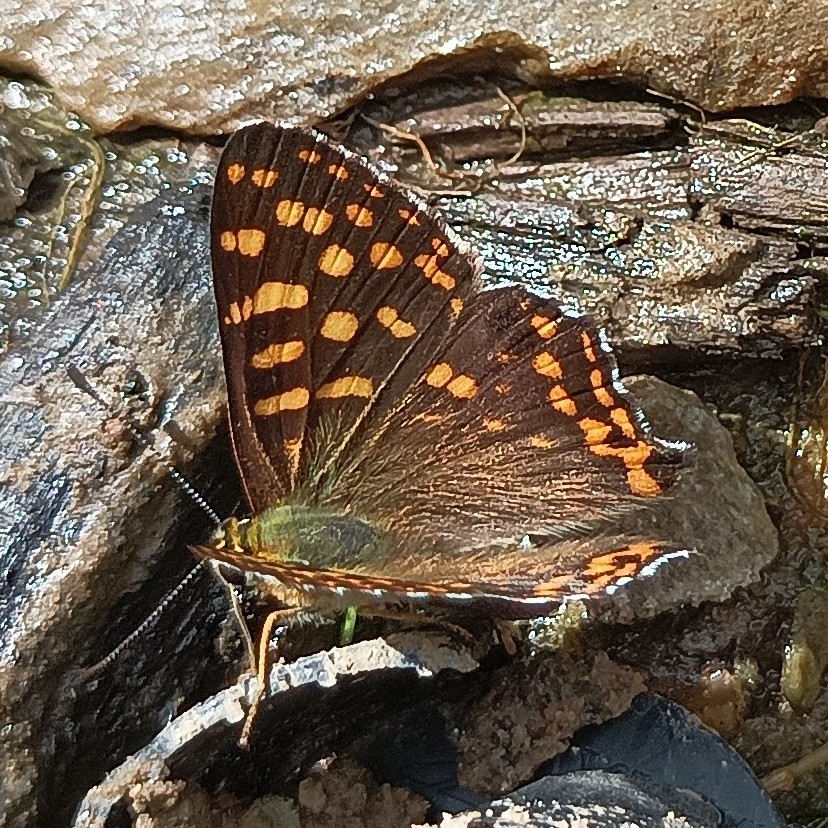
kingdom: Animalia
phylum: Arthropoda
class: Insecta
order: Lepidoptera
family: Lycaenidae
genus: Dodona
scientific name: Dodona durga
